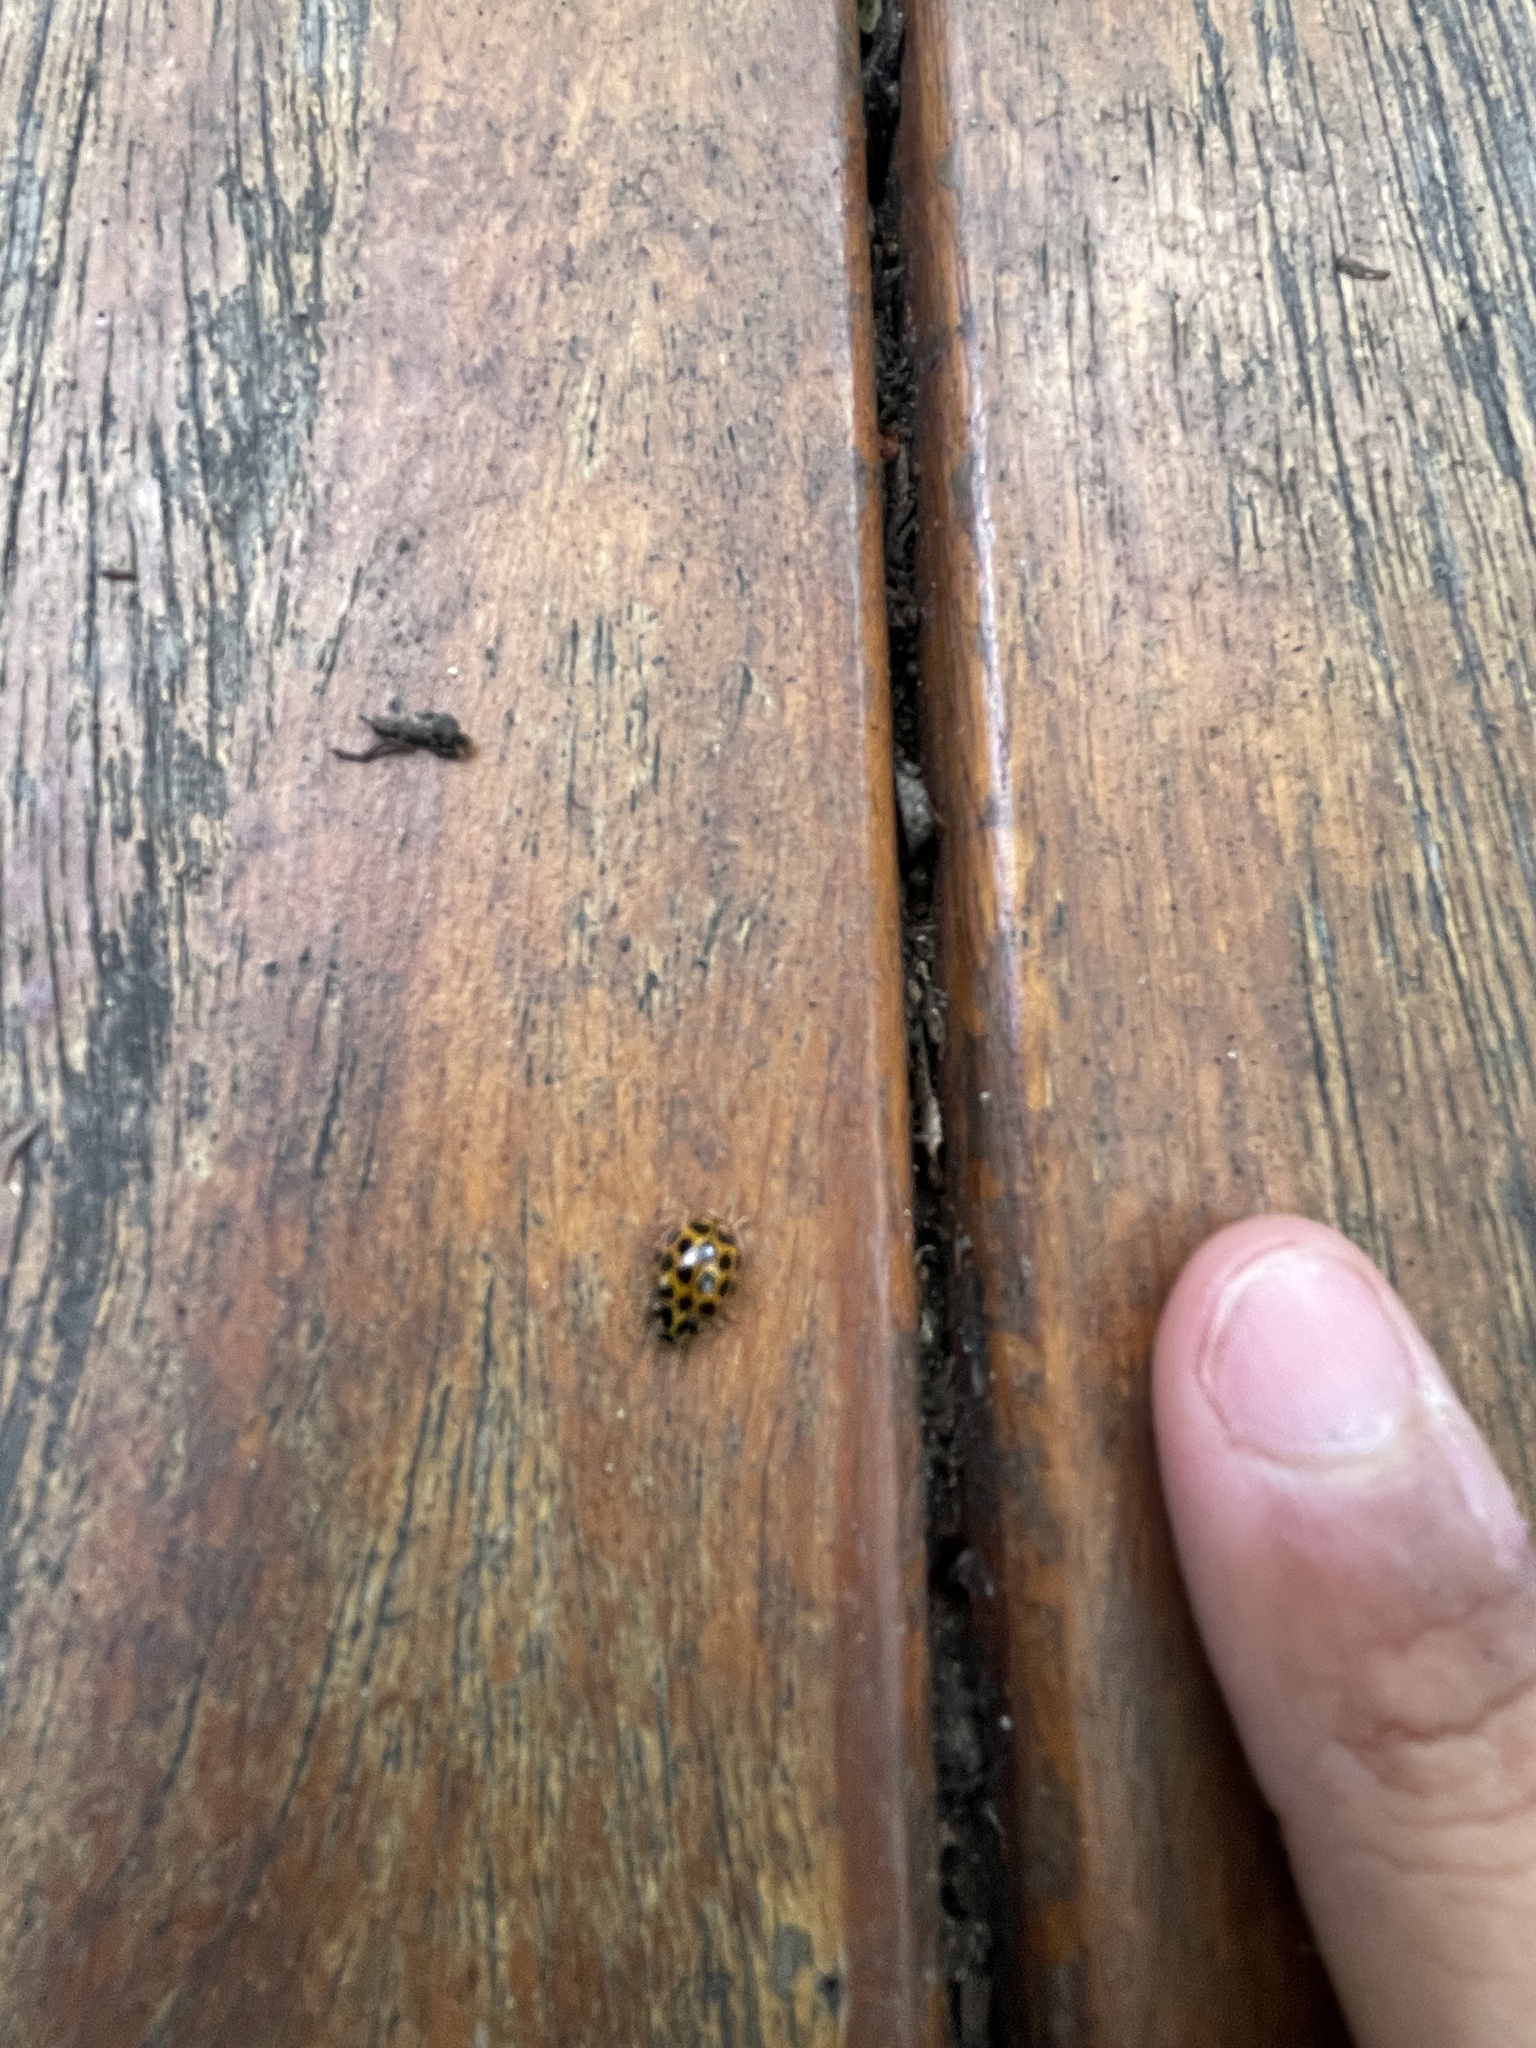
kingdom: Animalia
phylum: Arthropoda
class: Insecta
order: Coleoptera
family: Coccinellidae
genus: Harmonia
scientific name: Harmonia conformis
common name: Common spotted ladybird beetle
